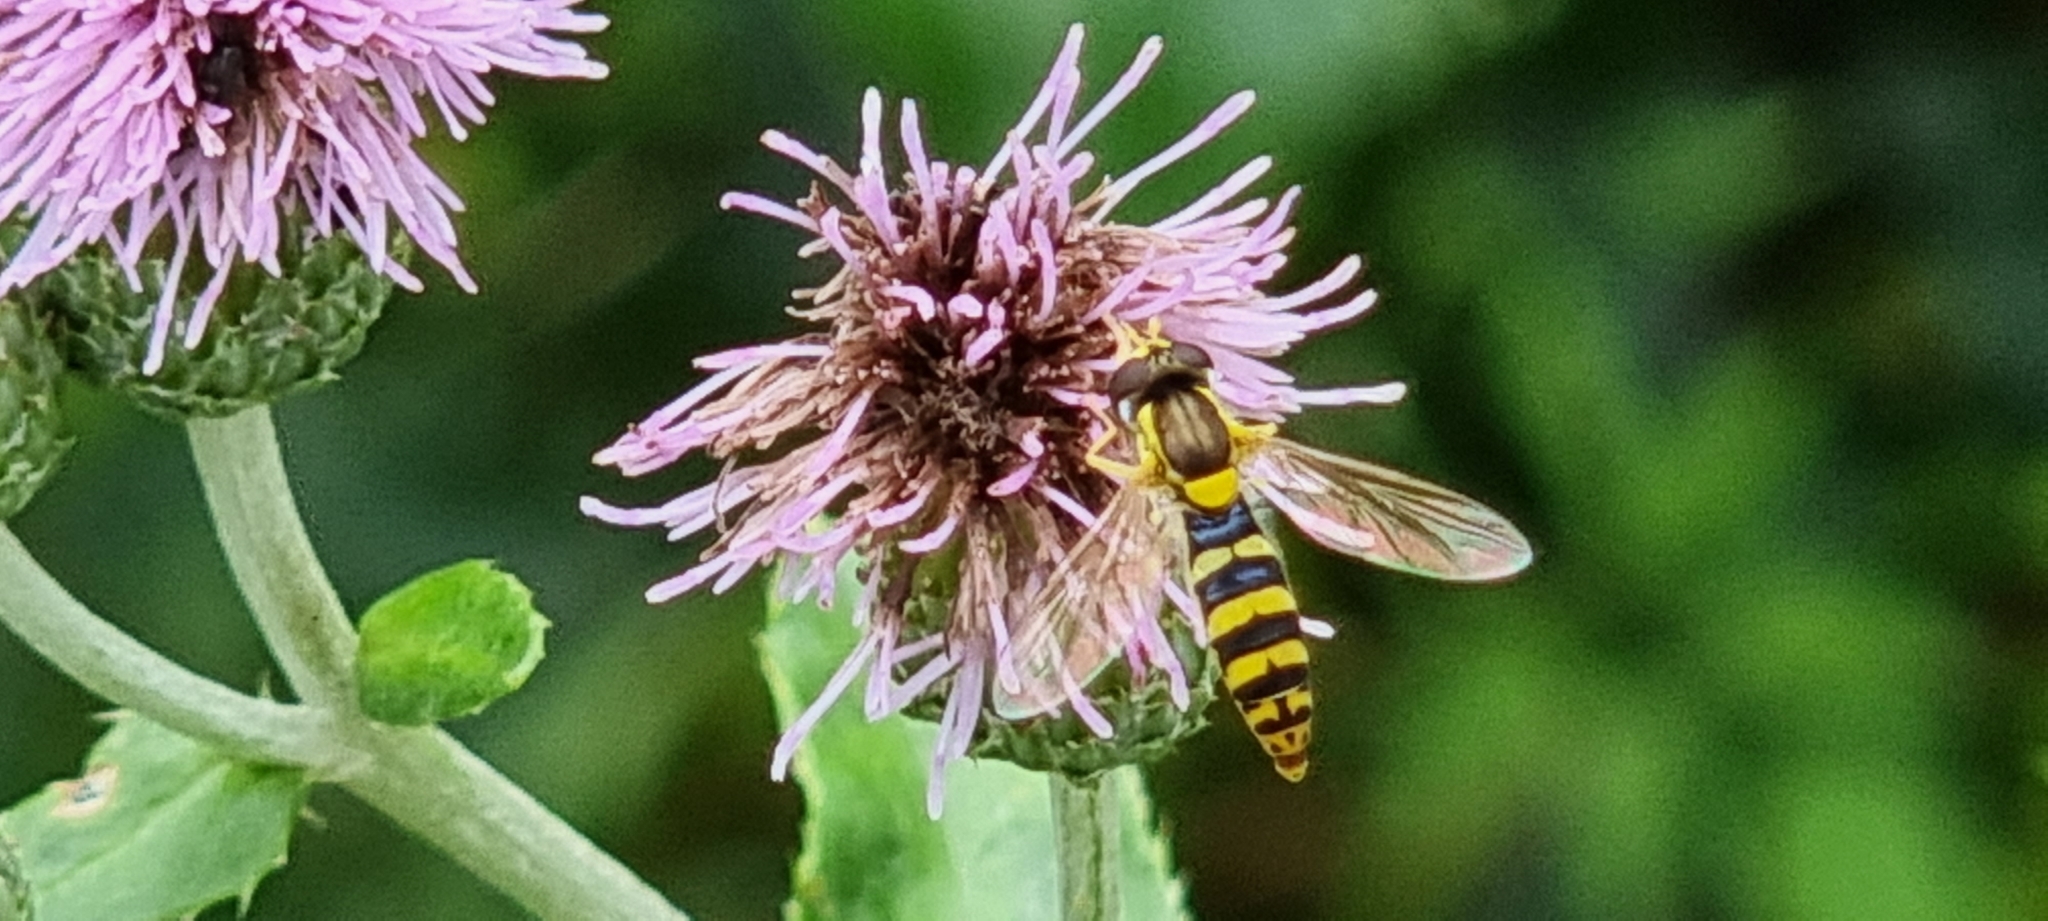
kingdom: Animalia
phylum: Arthropoda
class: Insecta
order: Diptera
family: Syrphidae
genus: Sphaerophoria
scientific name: Sphaerophoria
